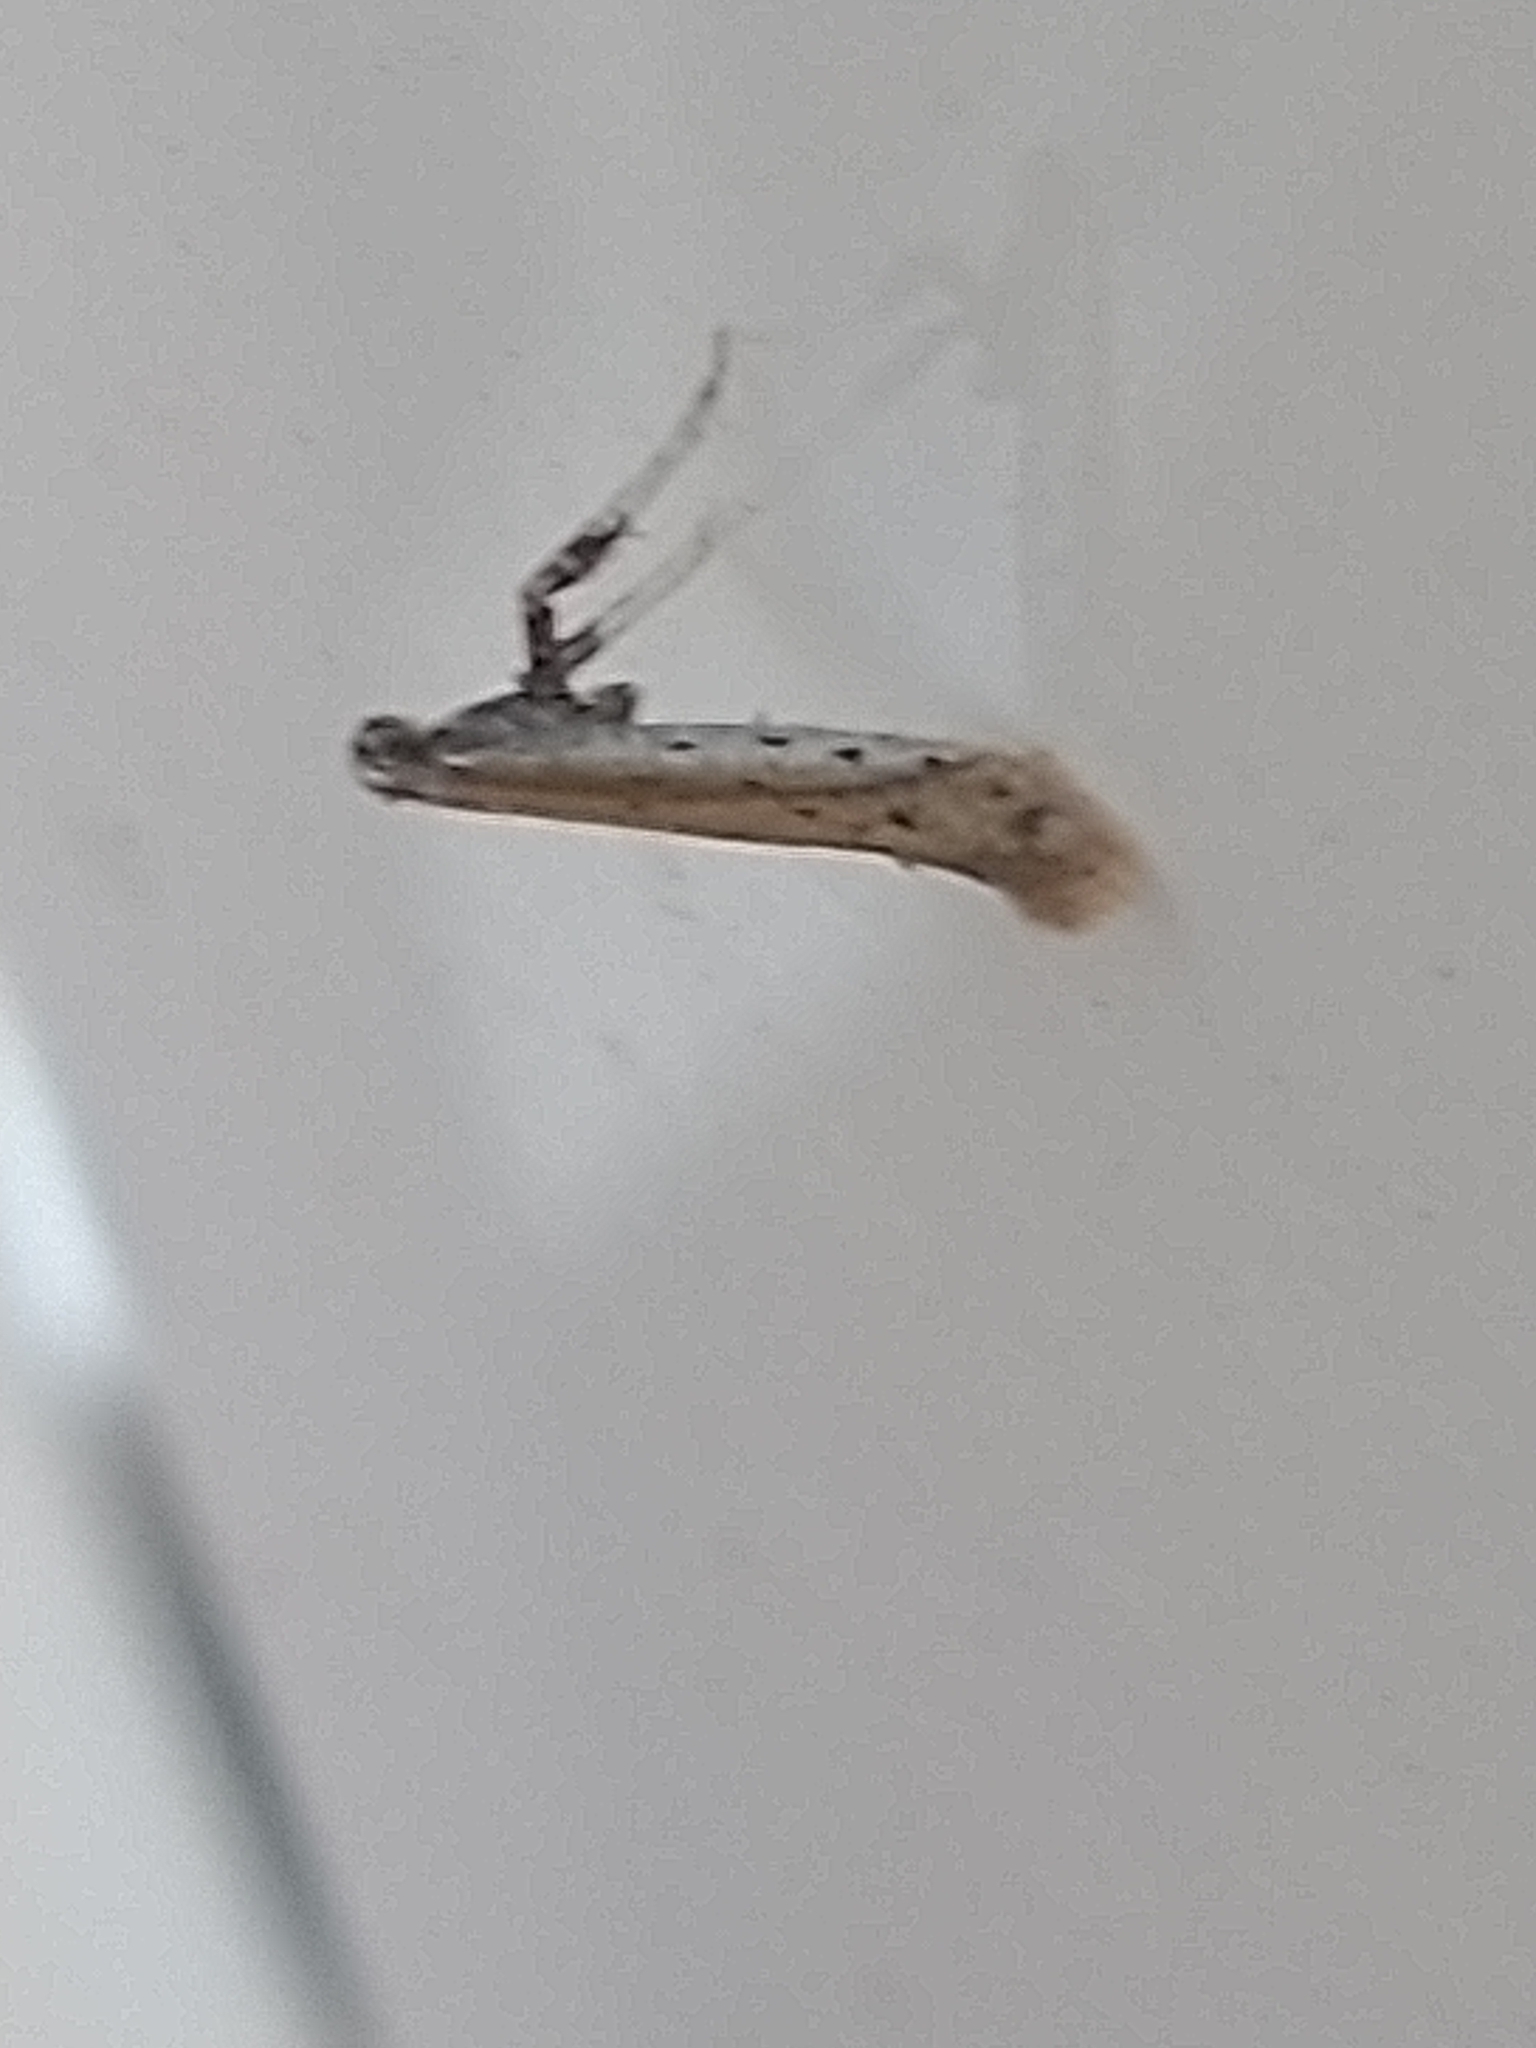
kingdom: Animalia
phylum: Arthropoda
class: Insecta
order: Lepidoptera
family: Gracillariidae
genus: Aspilapteryx
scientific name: Aspilapteryx tringipennella
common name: Ribwort slender
